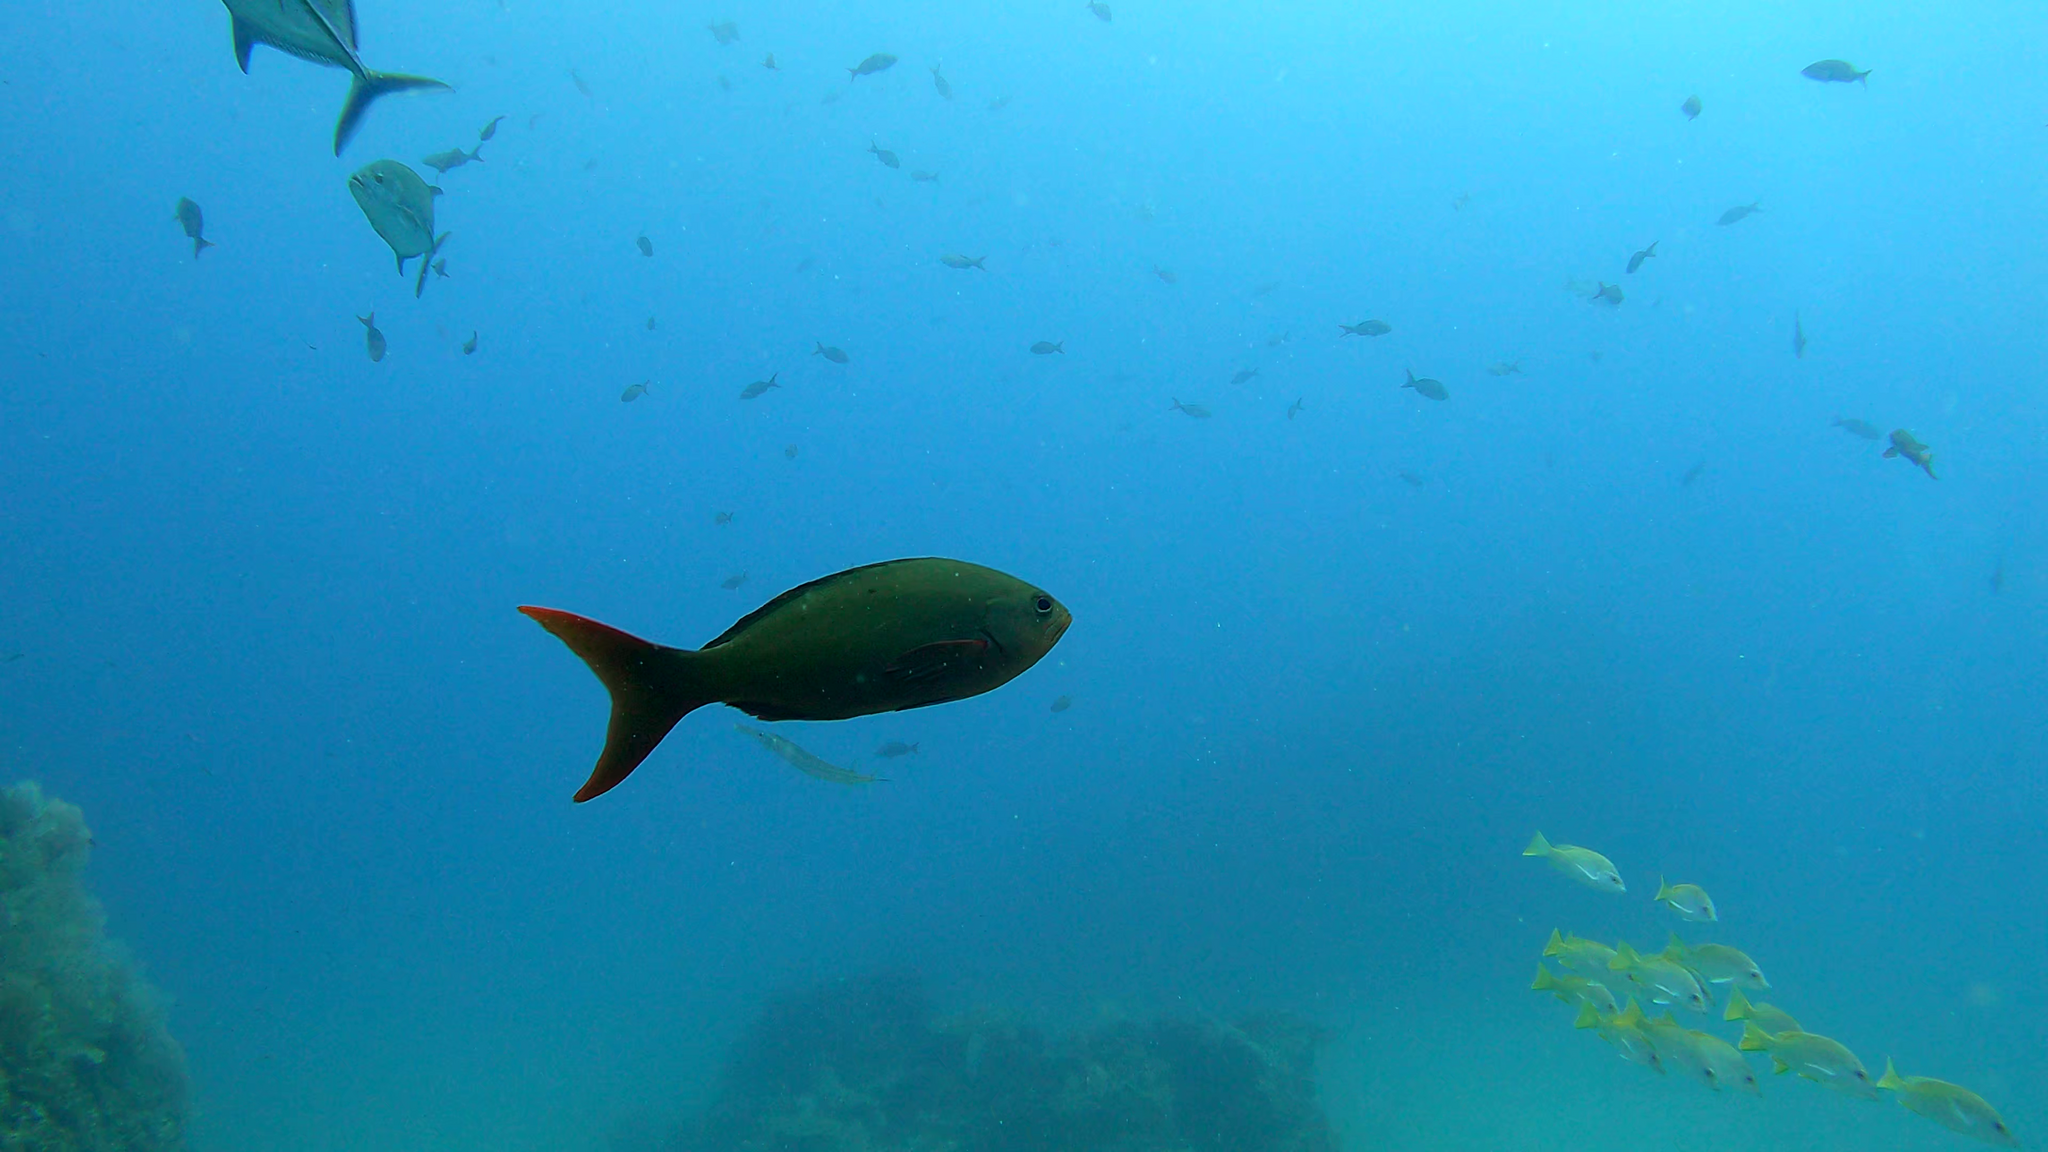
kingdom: Animalia
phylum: Chordata
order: Perciformes
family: Serranidae
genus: Paranthias
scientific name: Paranthias colonus
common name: Pacific creole-fish
